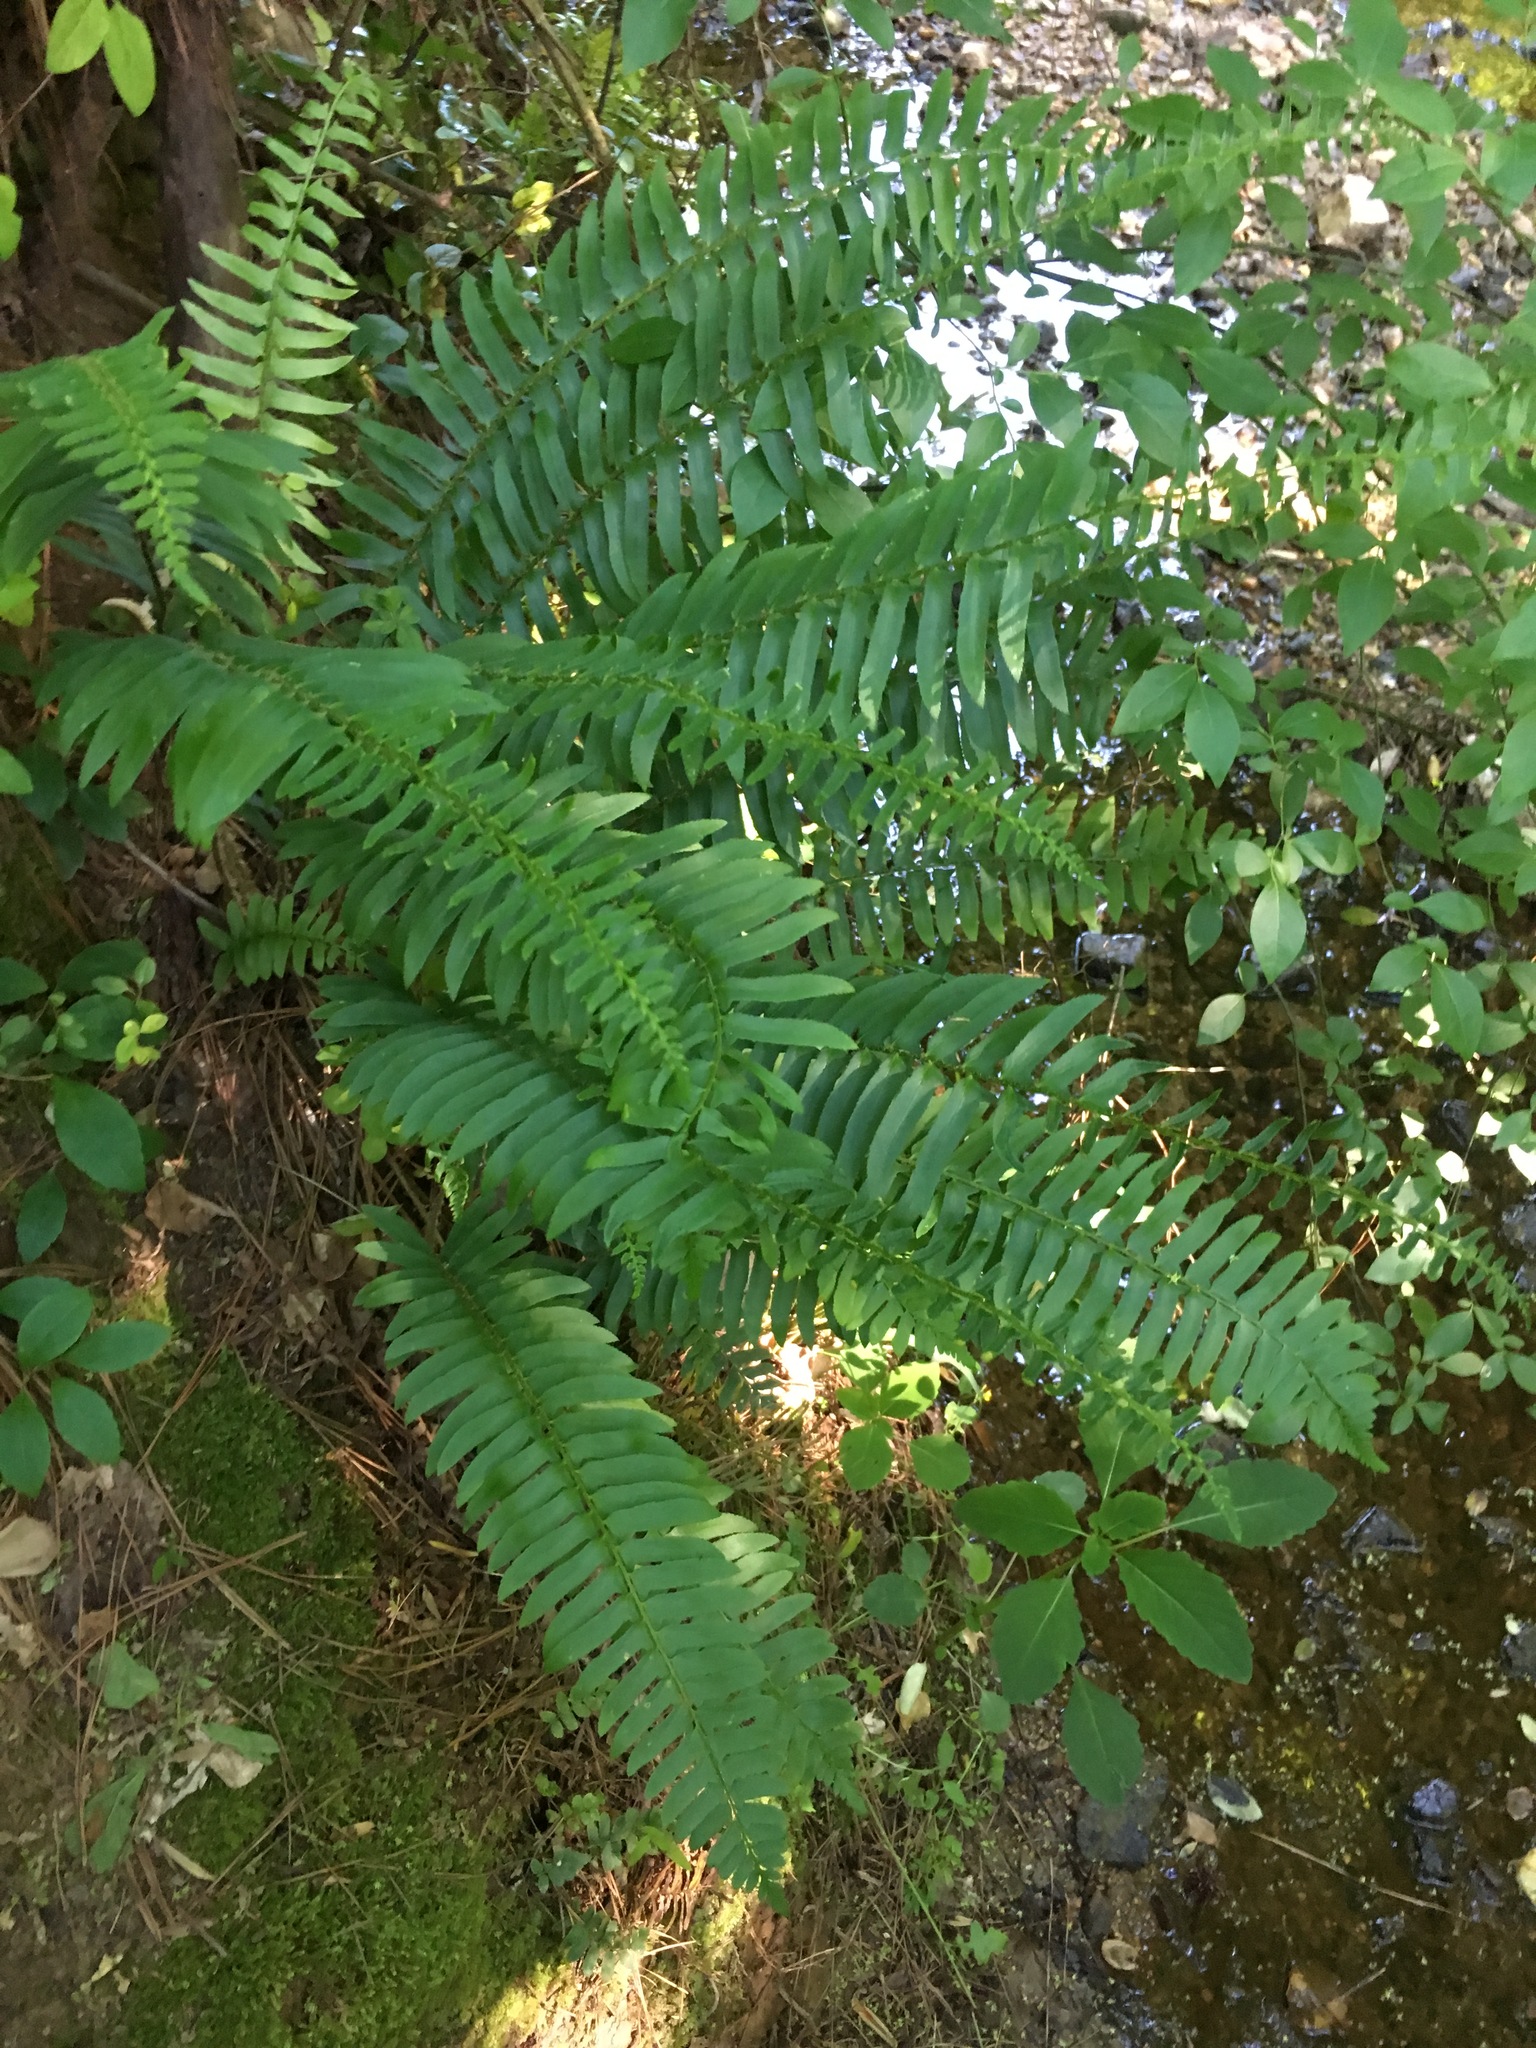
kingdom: Plantae
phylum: Tracheophyta
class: Polypodiopsida
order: Polypodiales
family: Dryopteridaceae
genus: Polystichum
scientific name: Polystichum acrostichoides
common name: Christmas fern
